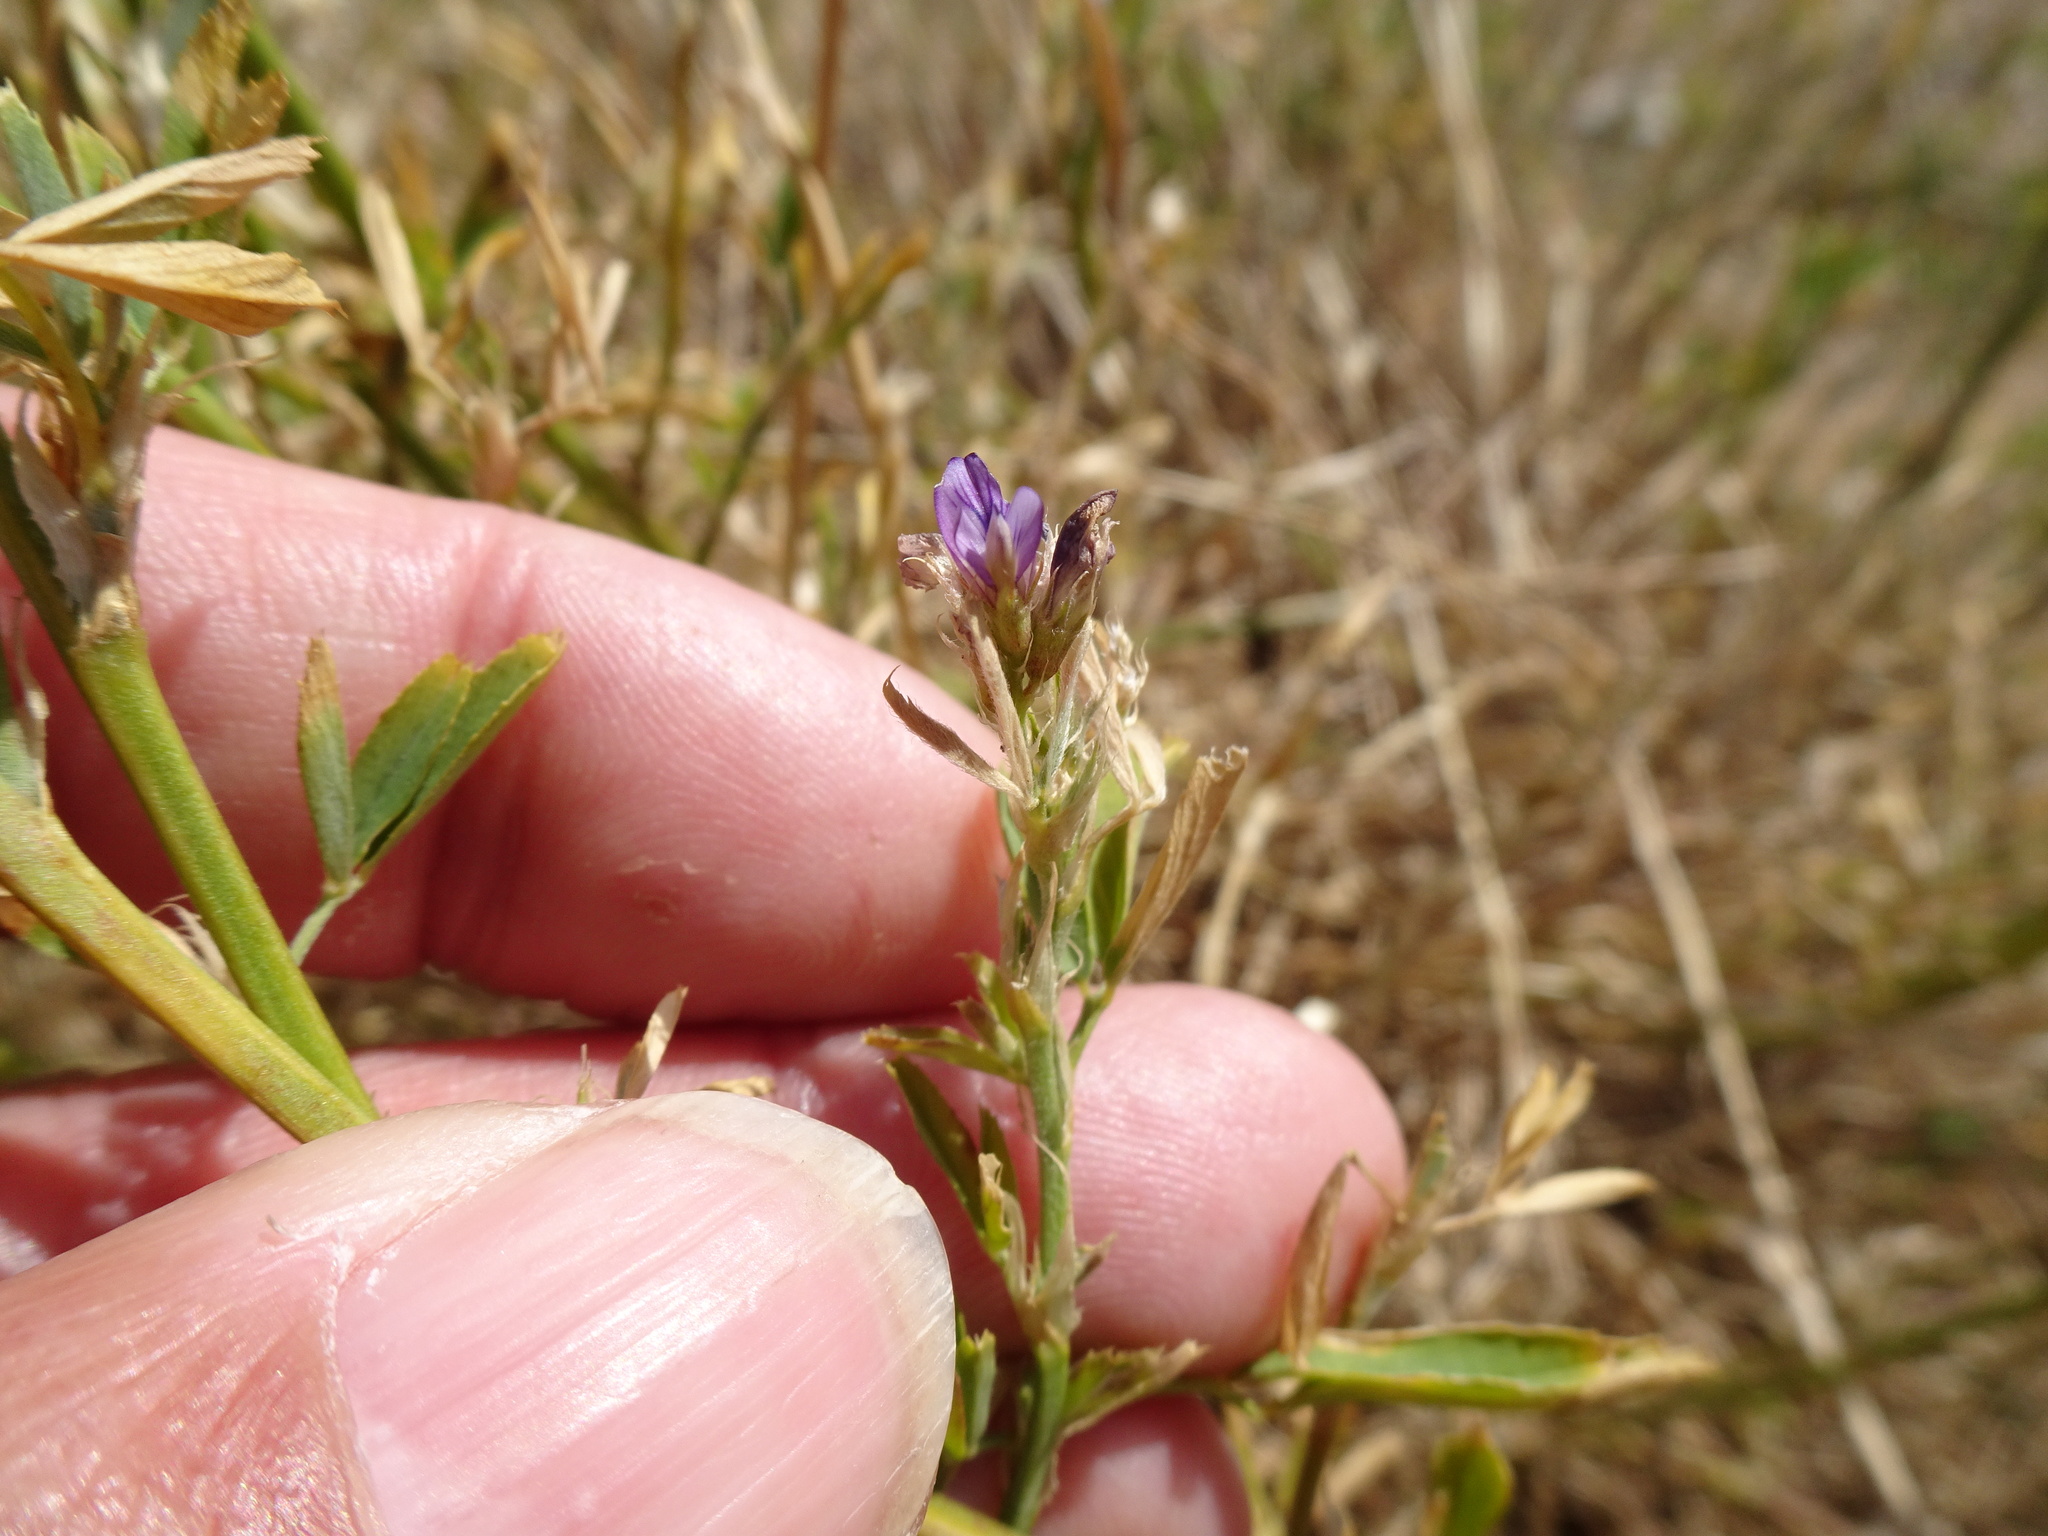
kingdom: Plantae
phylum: Tracheophyta
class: Magnoliopsida
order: Fabales
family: Fabaceae
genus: Medicago
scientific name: Medicago sativa
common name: Alfalfa
